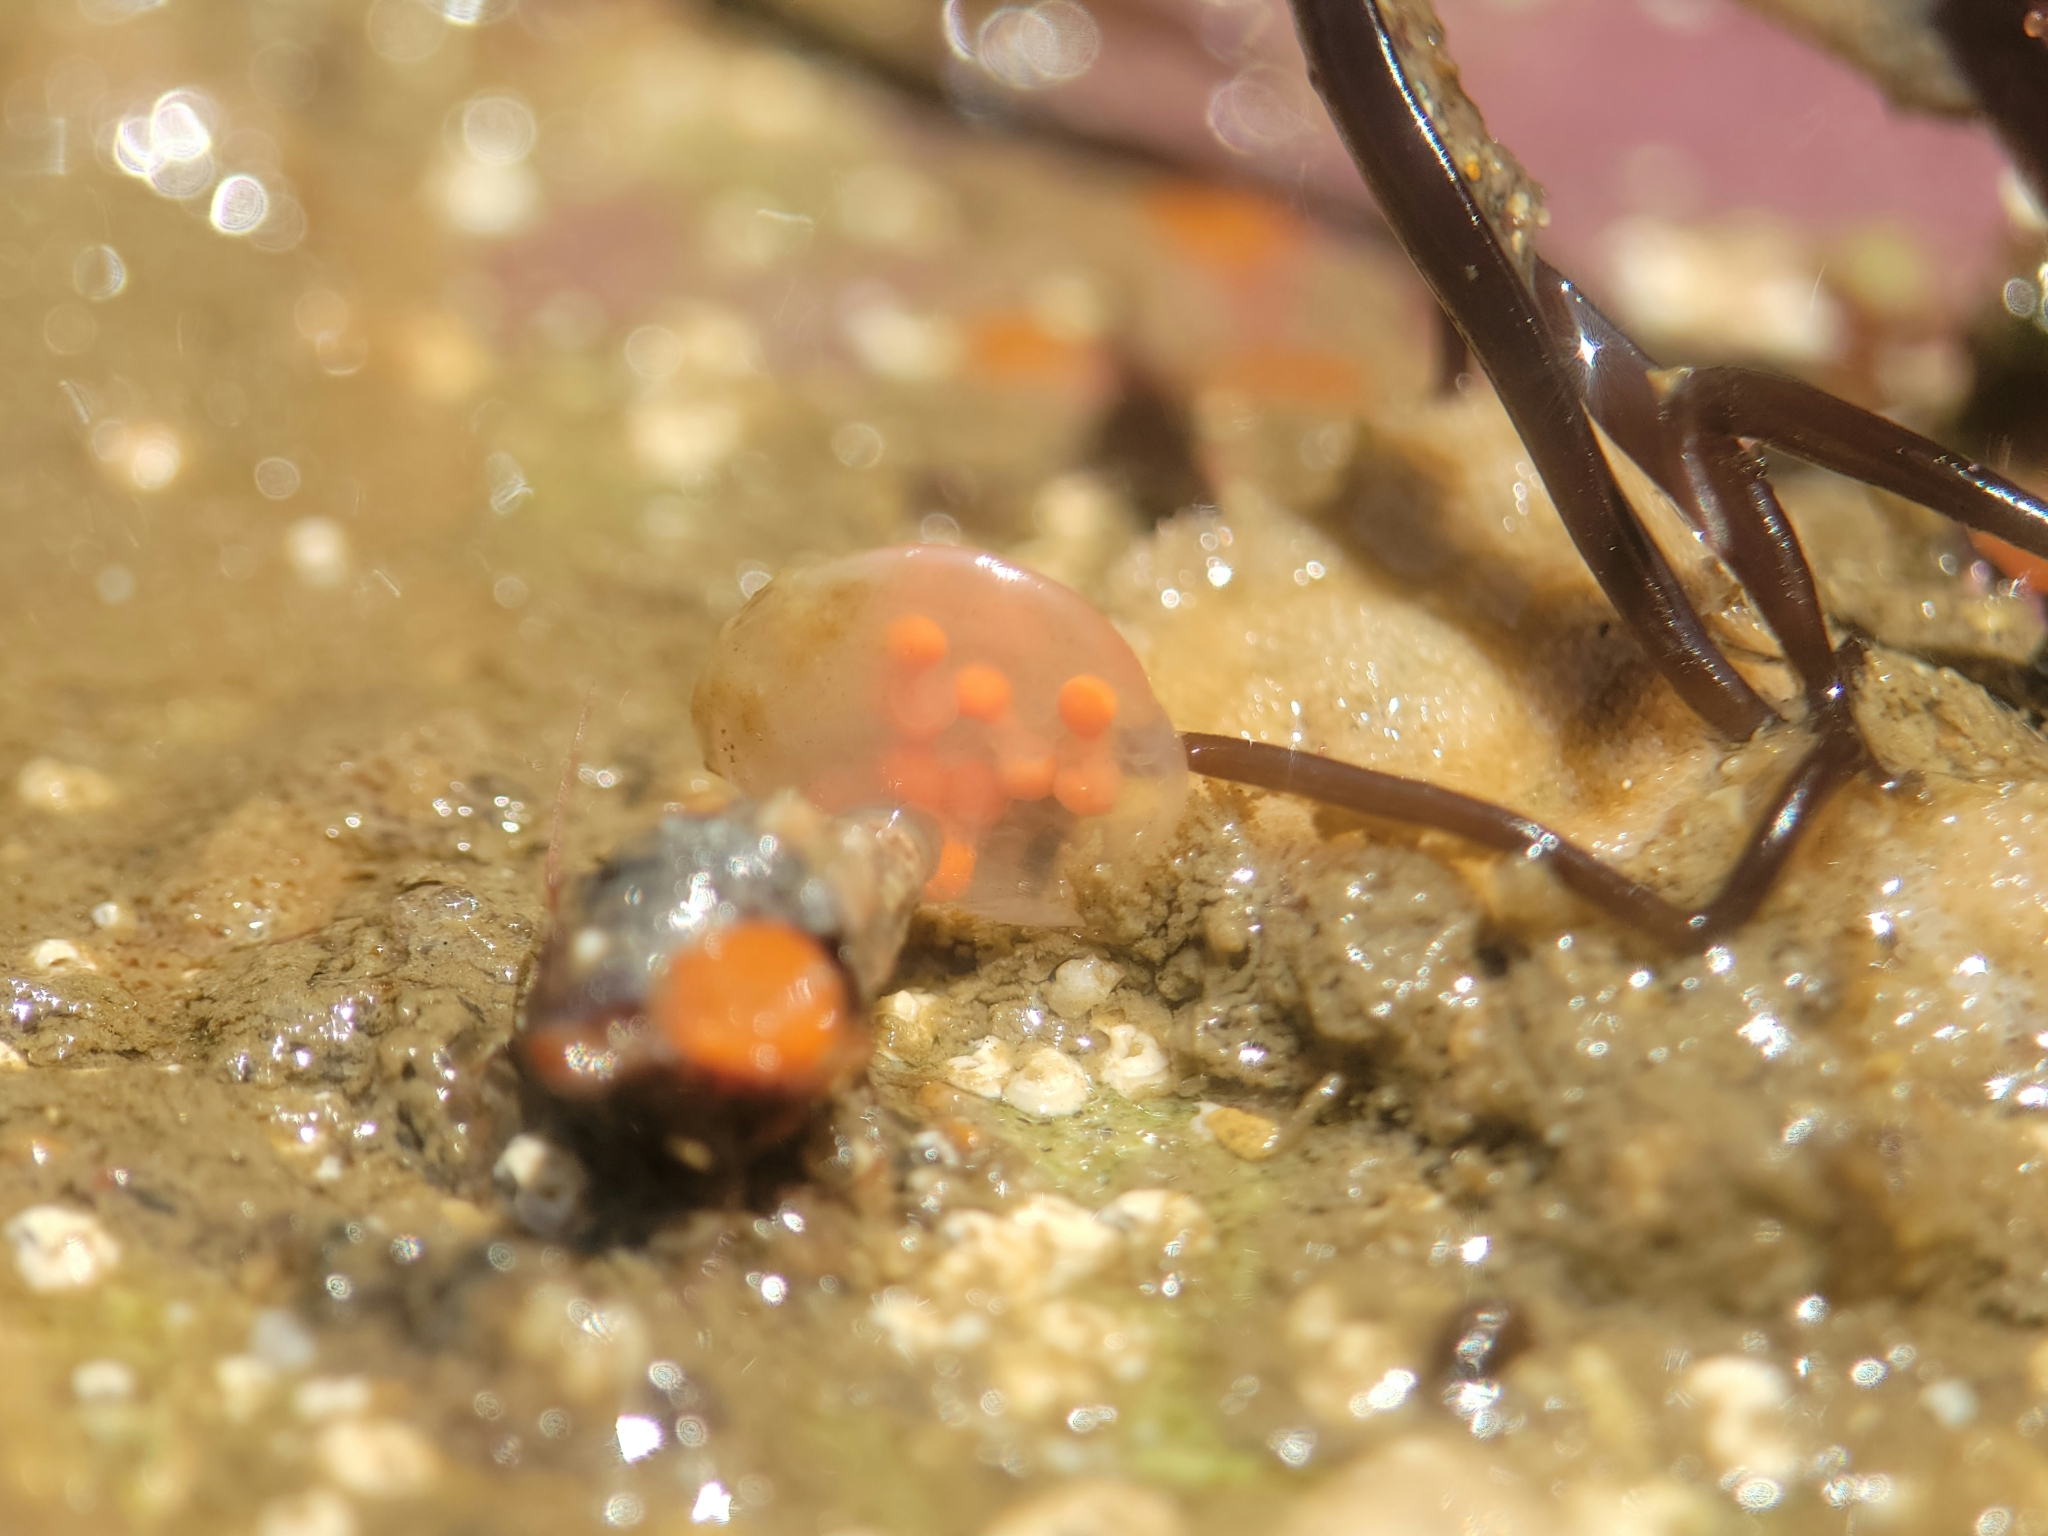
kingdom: Animalia
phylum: Mollusca
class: Gastropoda
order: Neogastropoda
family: Fasciolariidae
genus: Hesperaptyxis
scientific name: Hesperaptyxis luteopictus
